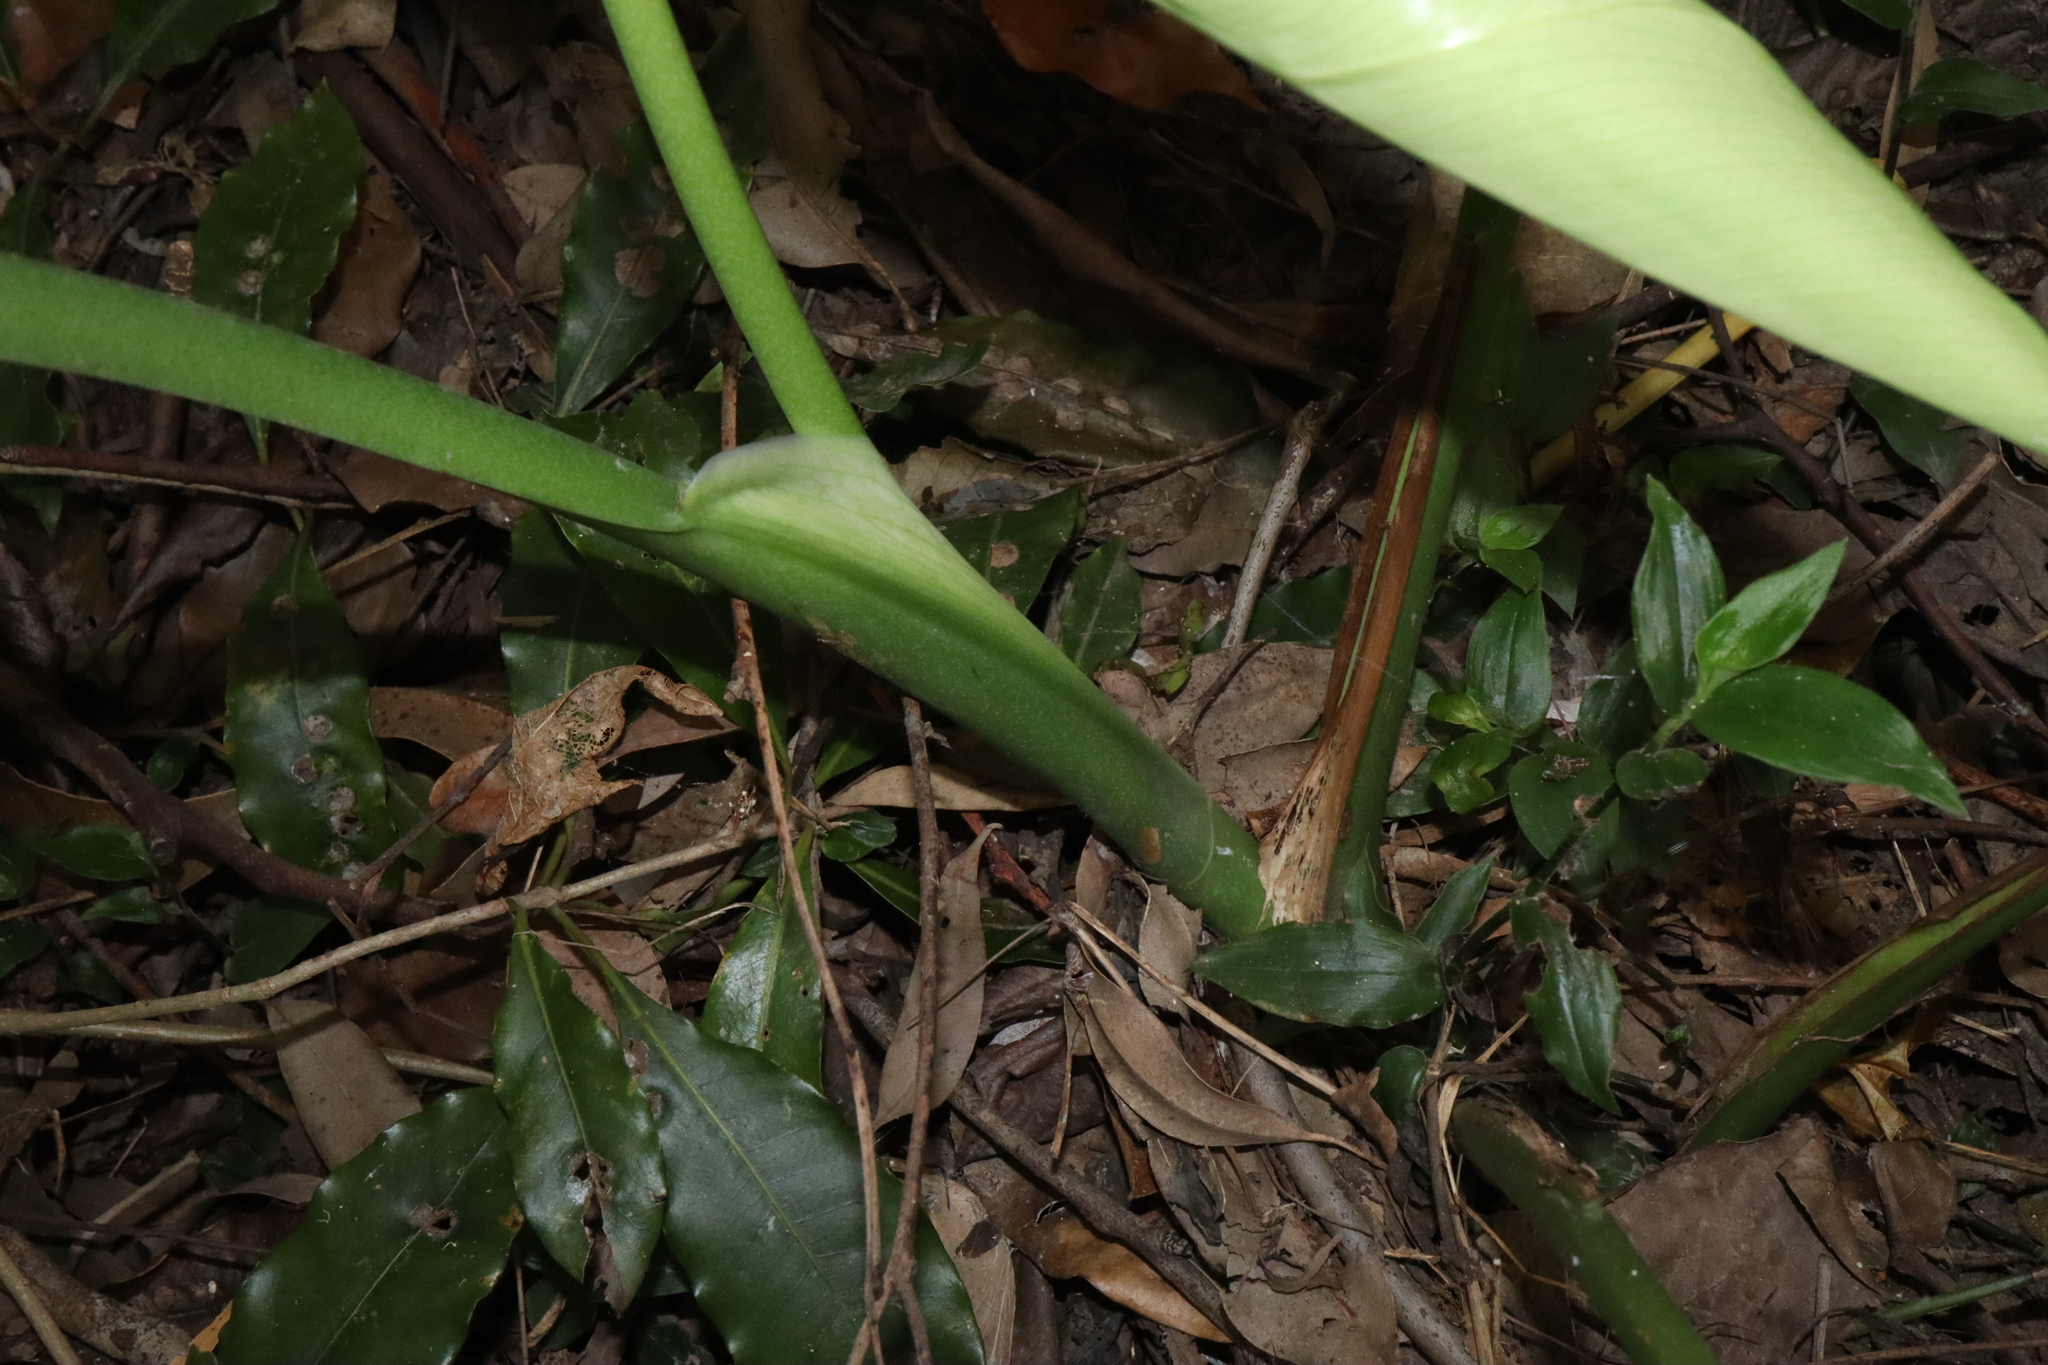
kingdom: Plantae
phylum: Tracheophyta
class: Liliopsida
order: Alismatales
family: Araceae
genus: Monstera
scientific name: Monstera deliciosa
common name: Cut-leaf-philodendron
